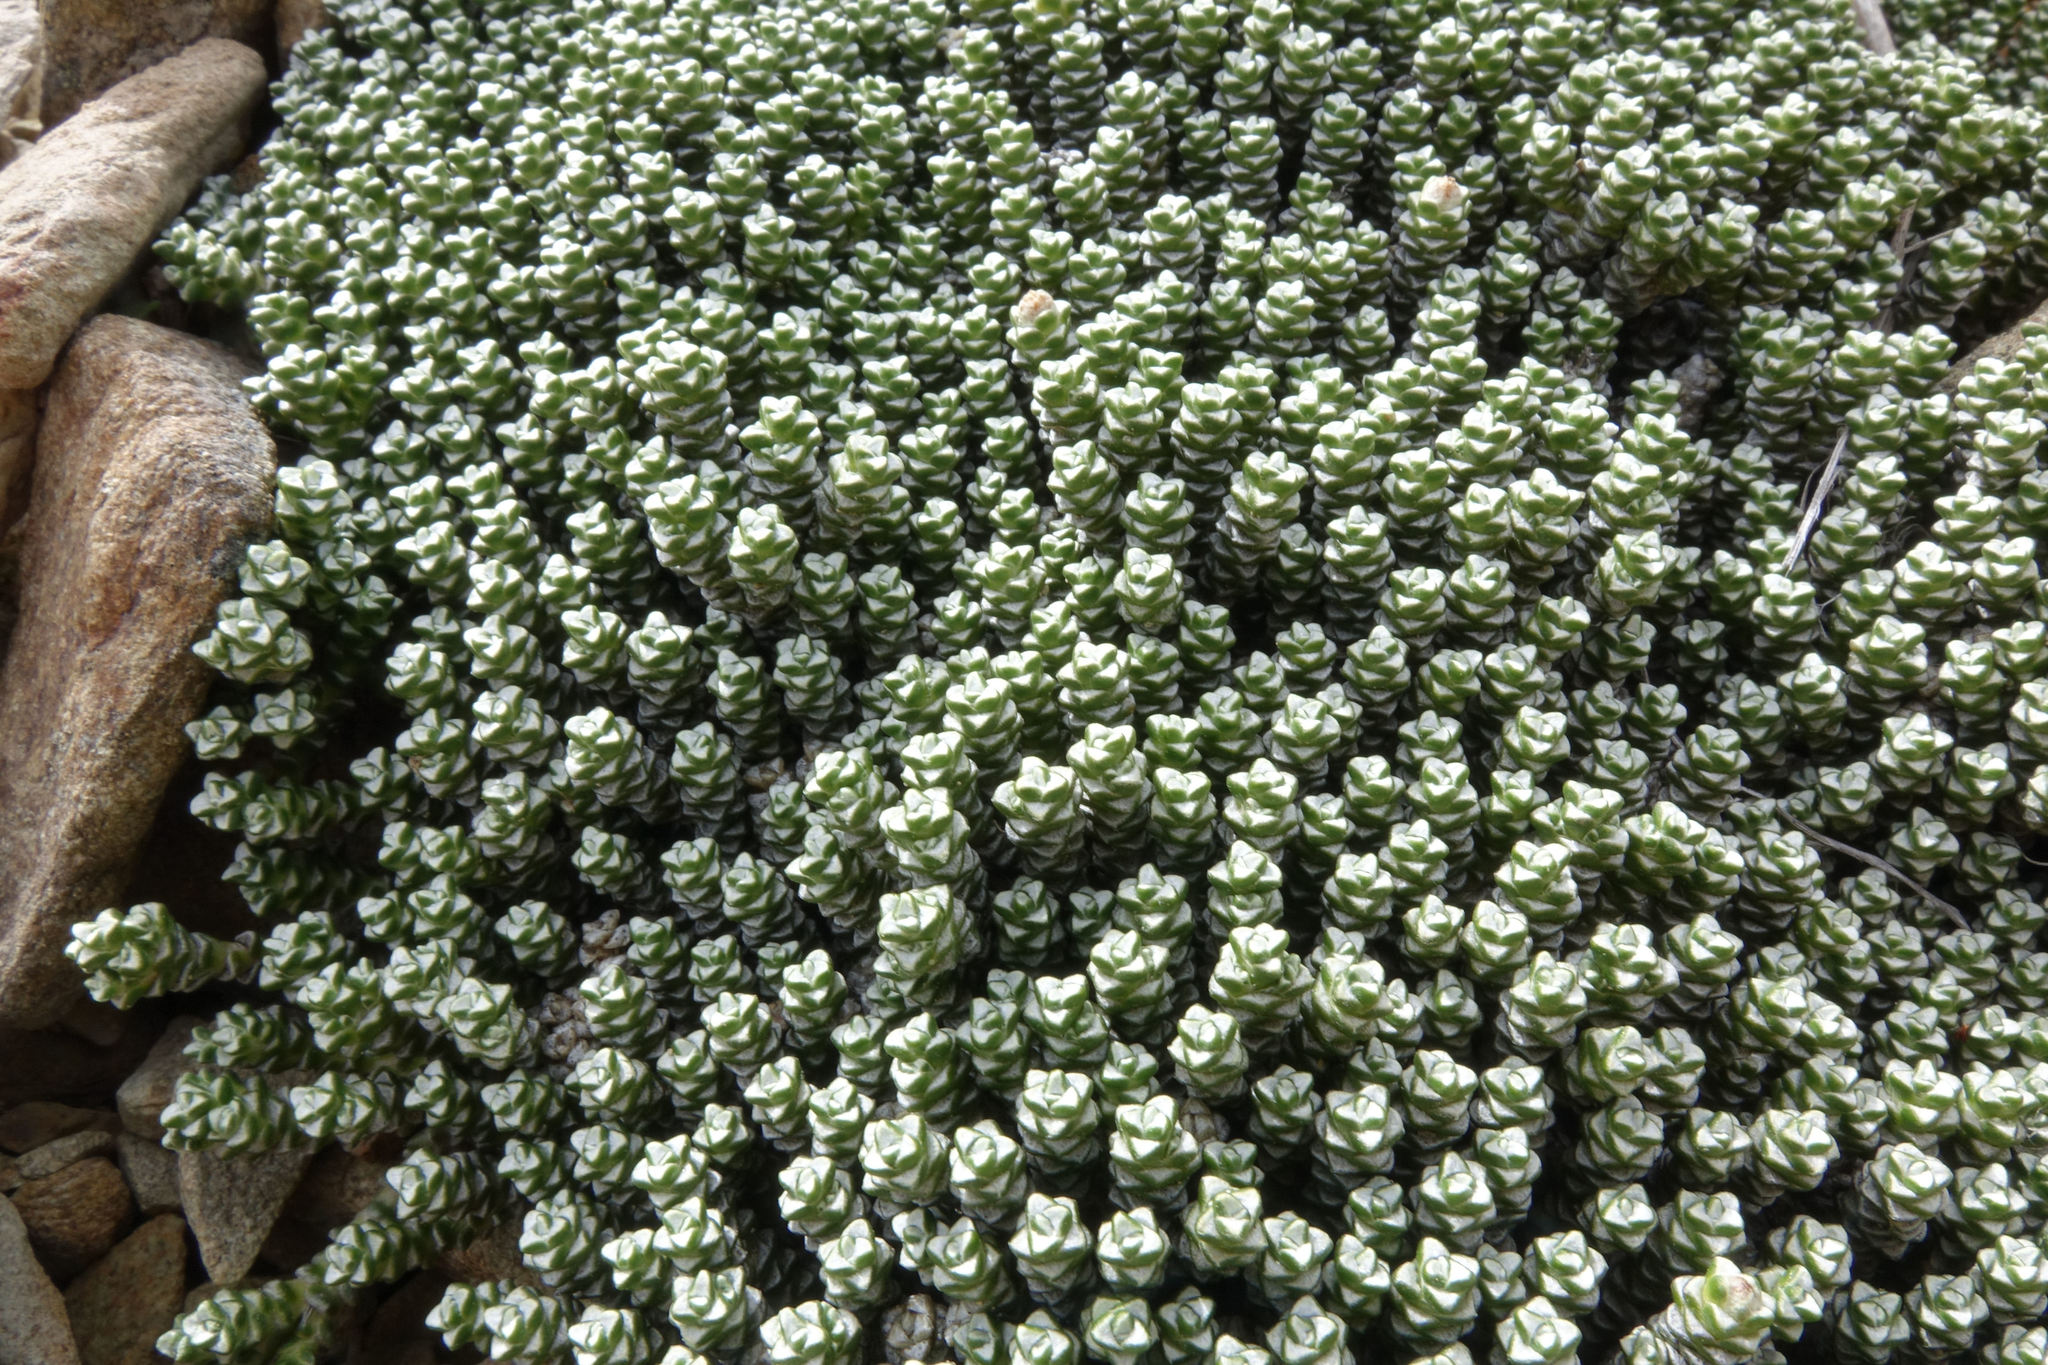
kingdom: Plantae
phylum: Tracheophyta
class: Magnoliopsida
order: Asterales
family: Asteraceae
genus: Raoulia
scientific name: Raoulia petriensis
